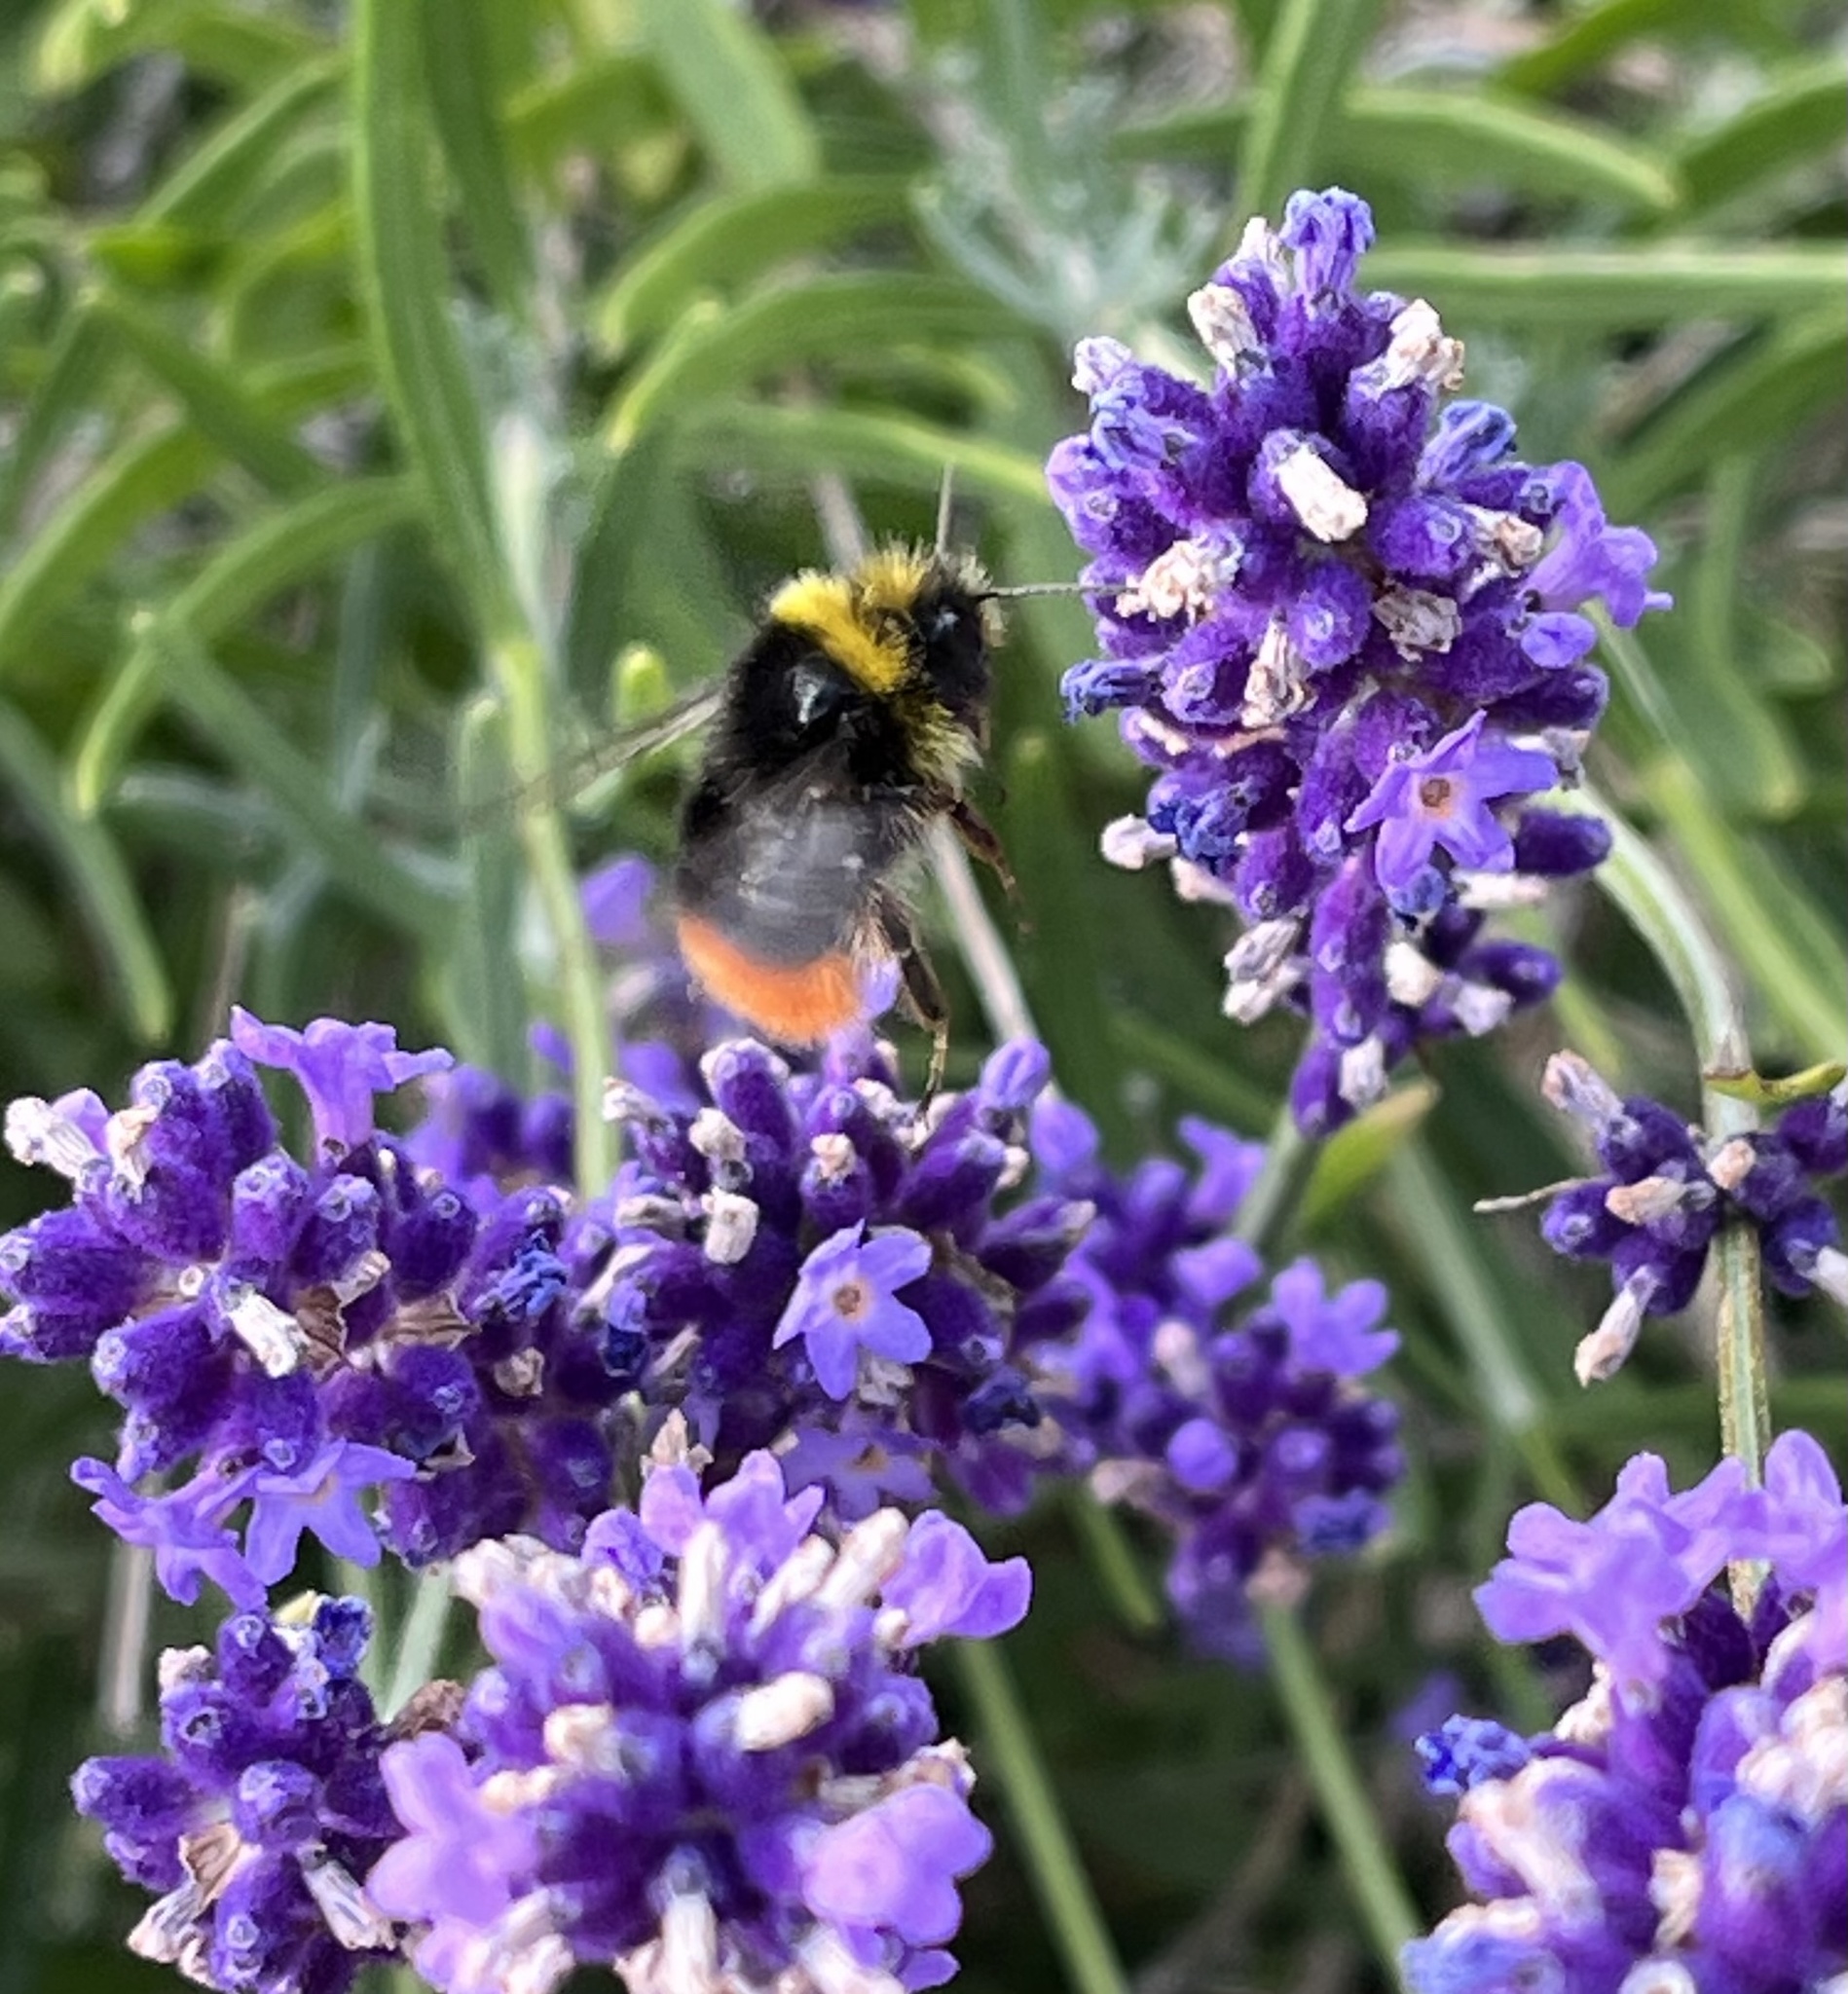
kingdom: Animalia
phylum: Arthropoda
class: Insecta
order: Hymenoptera
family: Apidae
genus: Bombus
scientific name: Bombus lapidarius
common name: Large red-tailed humble-bee
